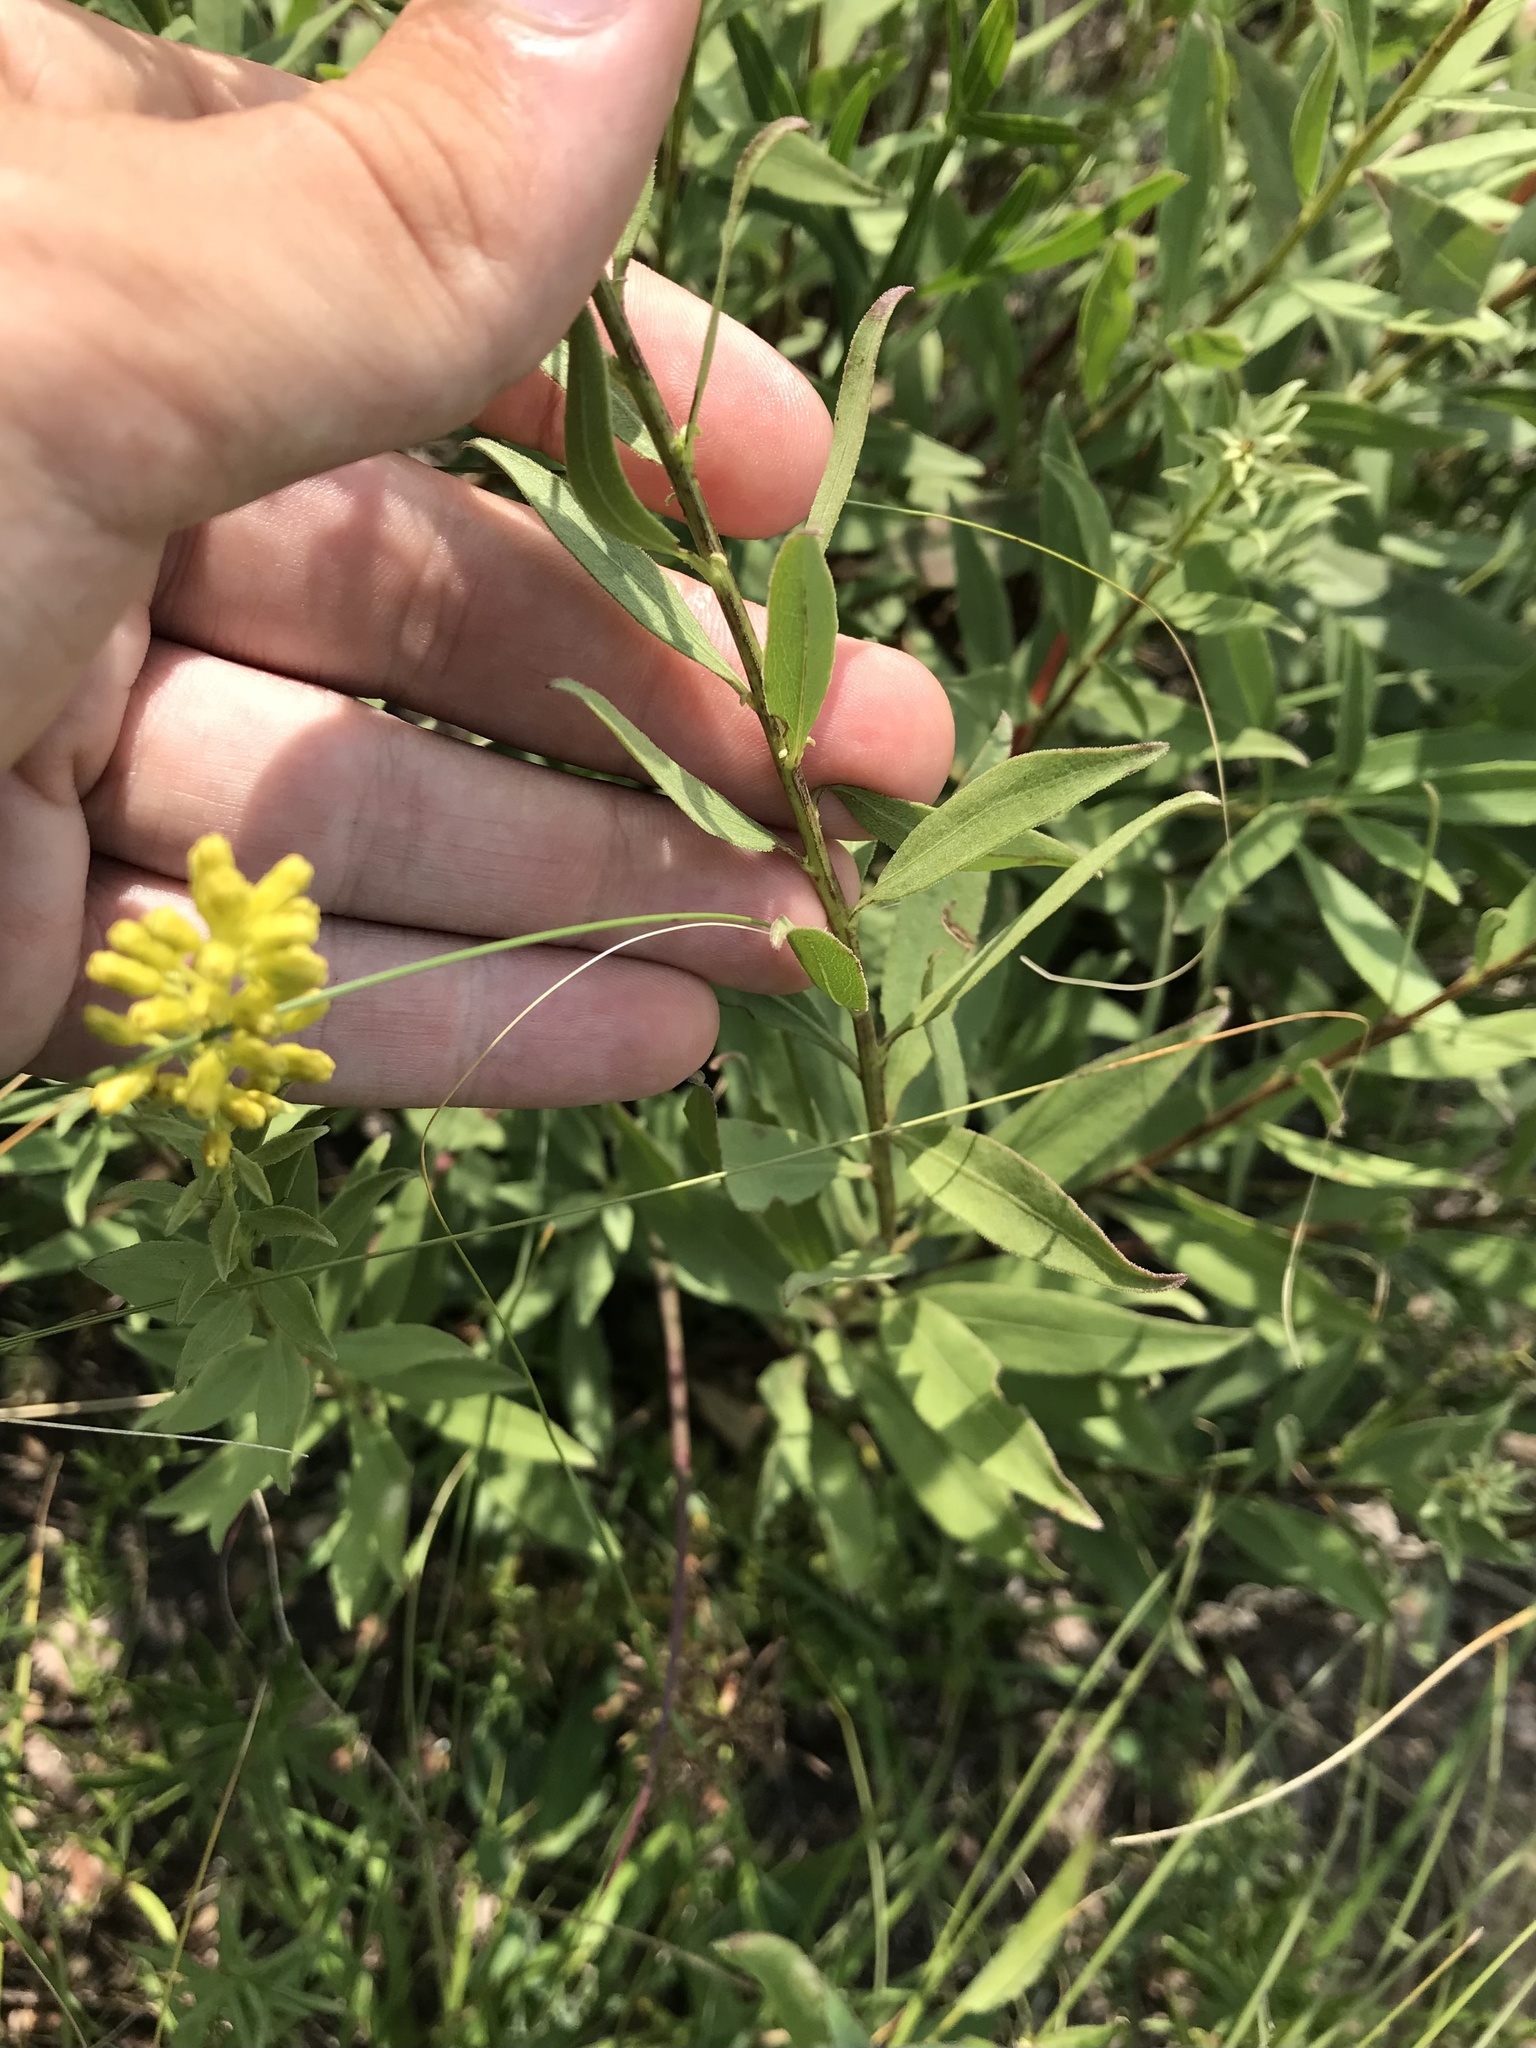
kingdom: Plantae
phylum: Tracheophyta
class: Magnoliopsida
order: Asterales
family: Asteraceae
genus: Solidago
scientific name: Solidago rigidiuscula
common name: Stiff-leaved showy goldenrod
